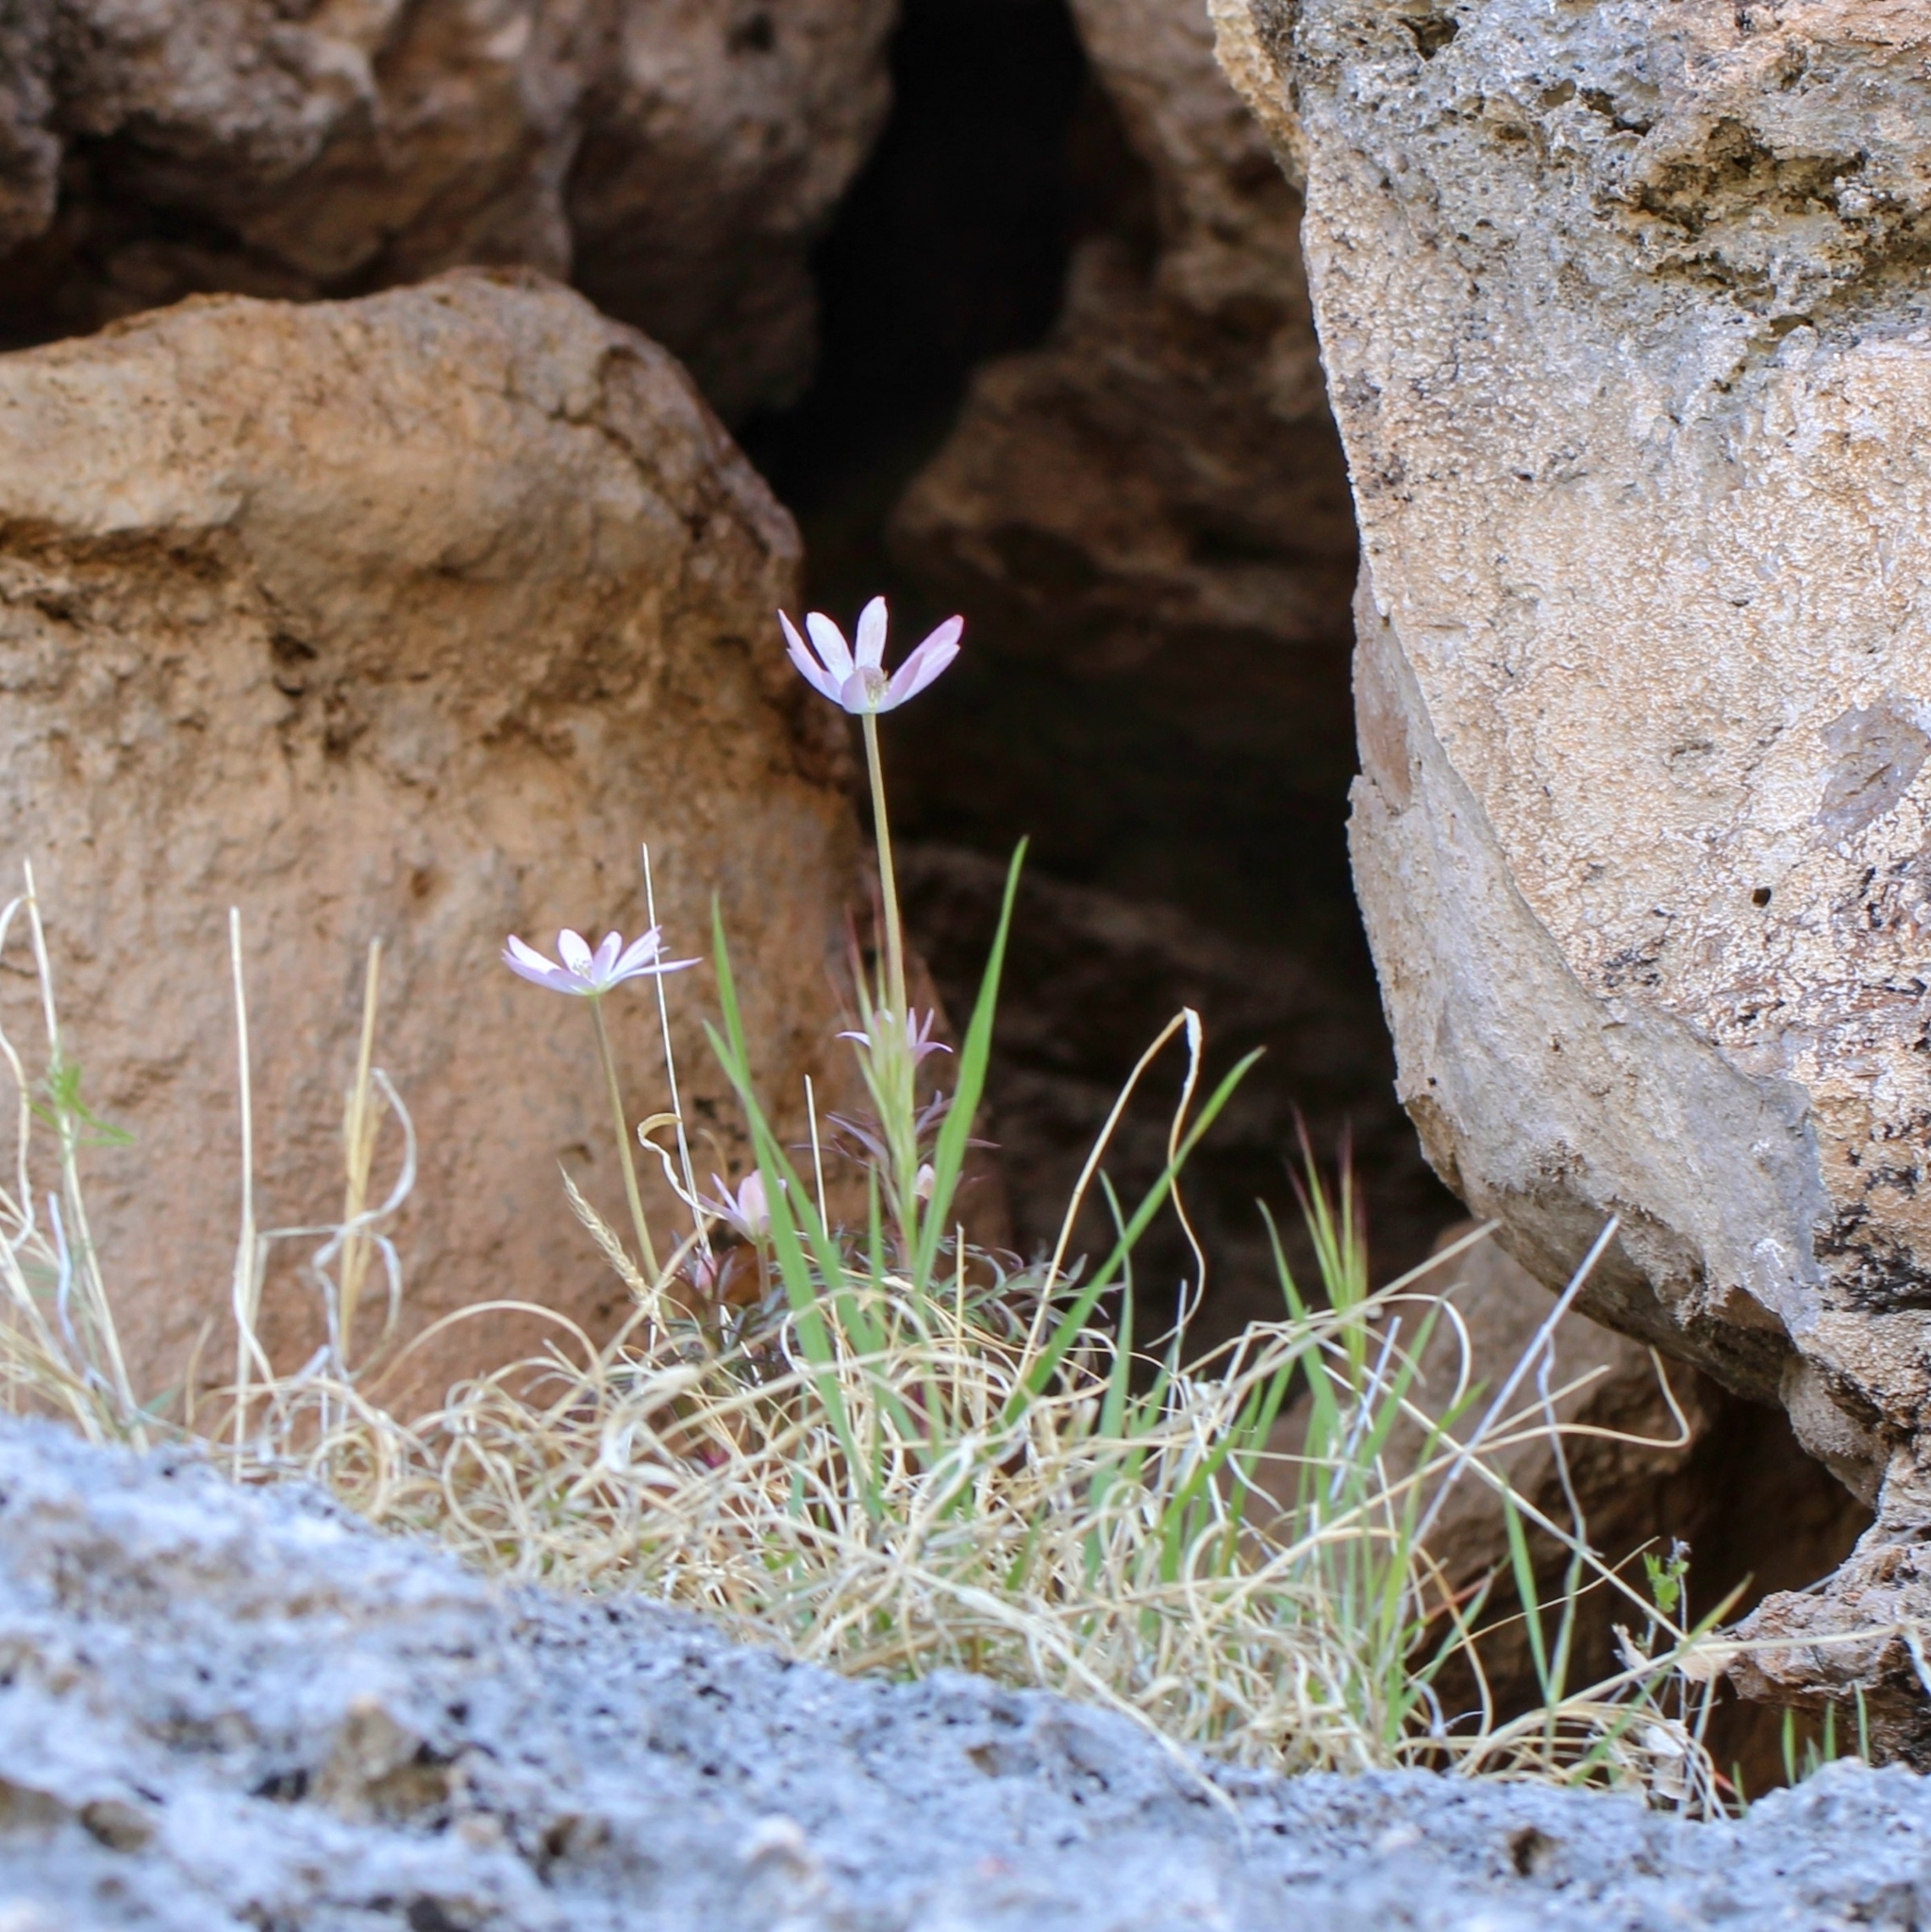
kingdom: Plantae
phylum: Tracheophyta
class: Magnoliopsida
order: Ranunculales
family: Ranunculaceae
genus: Anemone
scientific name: Anemone tuberosa
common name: Desert anemone
